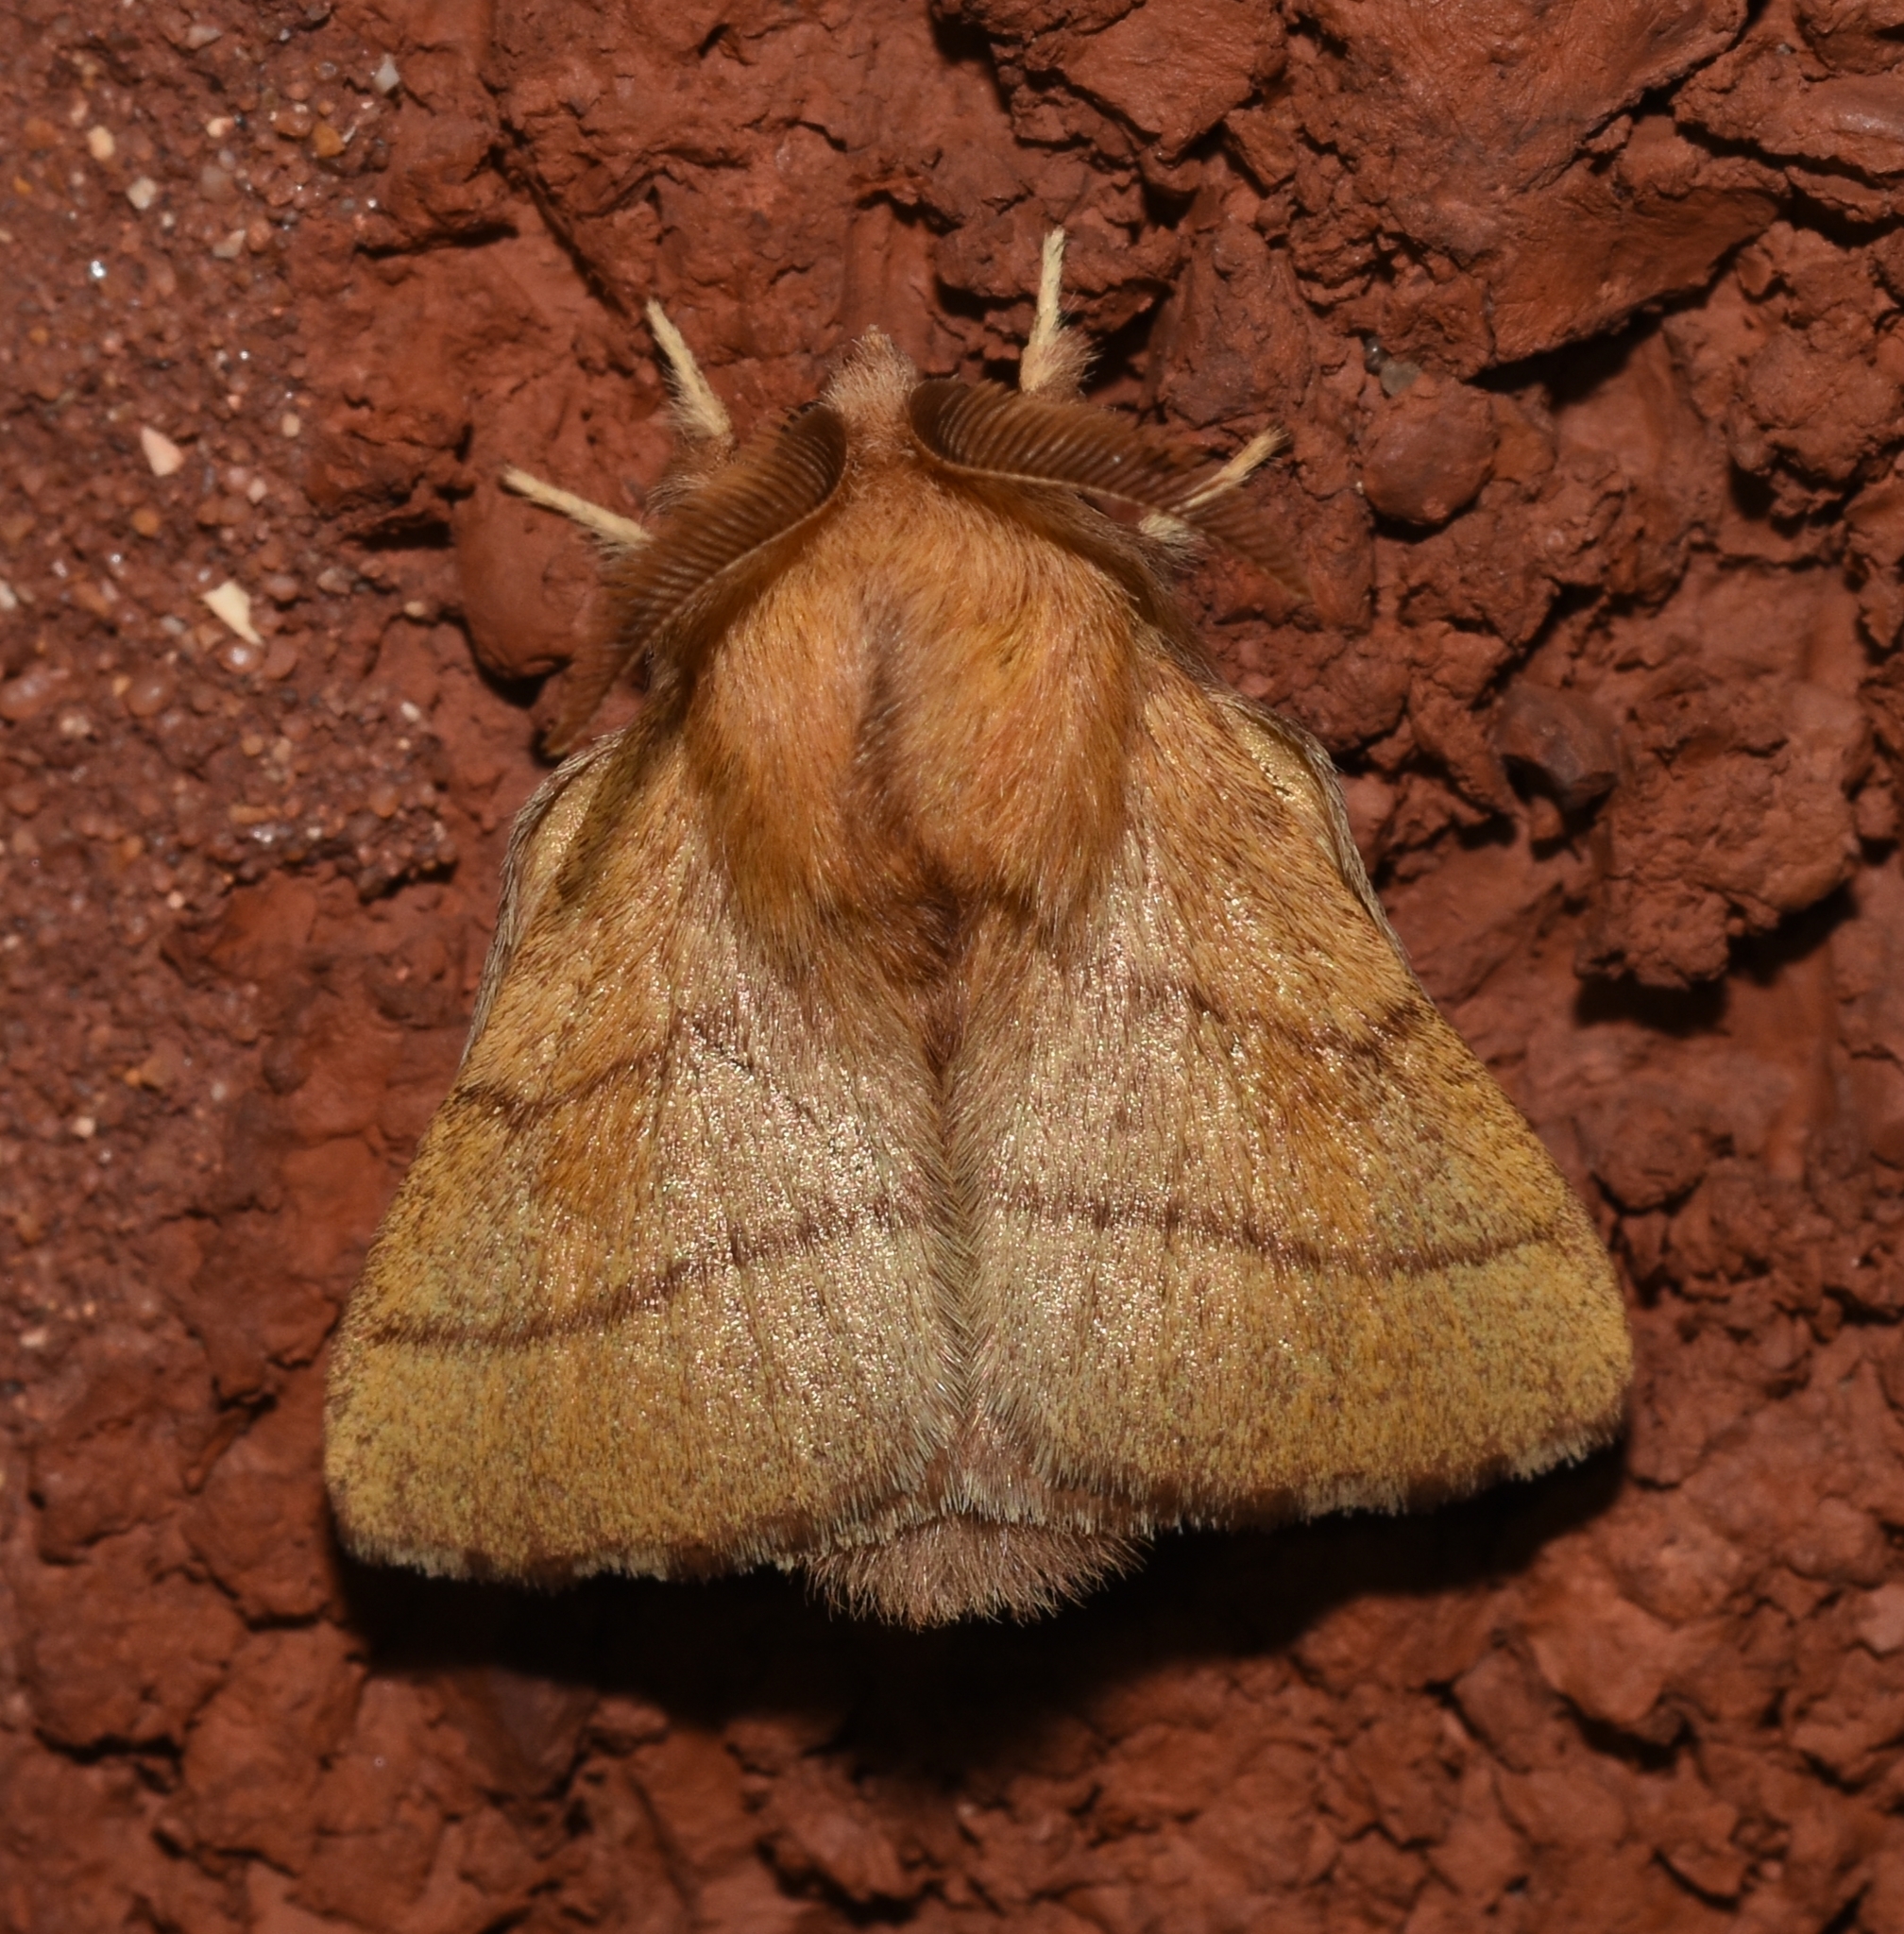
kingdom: Animalia
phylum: Arthropoda
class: Insecta
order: Lepidoptera
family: Lasiocampidae
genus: Malacosoma
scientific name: Malacosoma disstria
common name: Forest tent caterpillar
